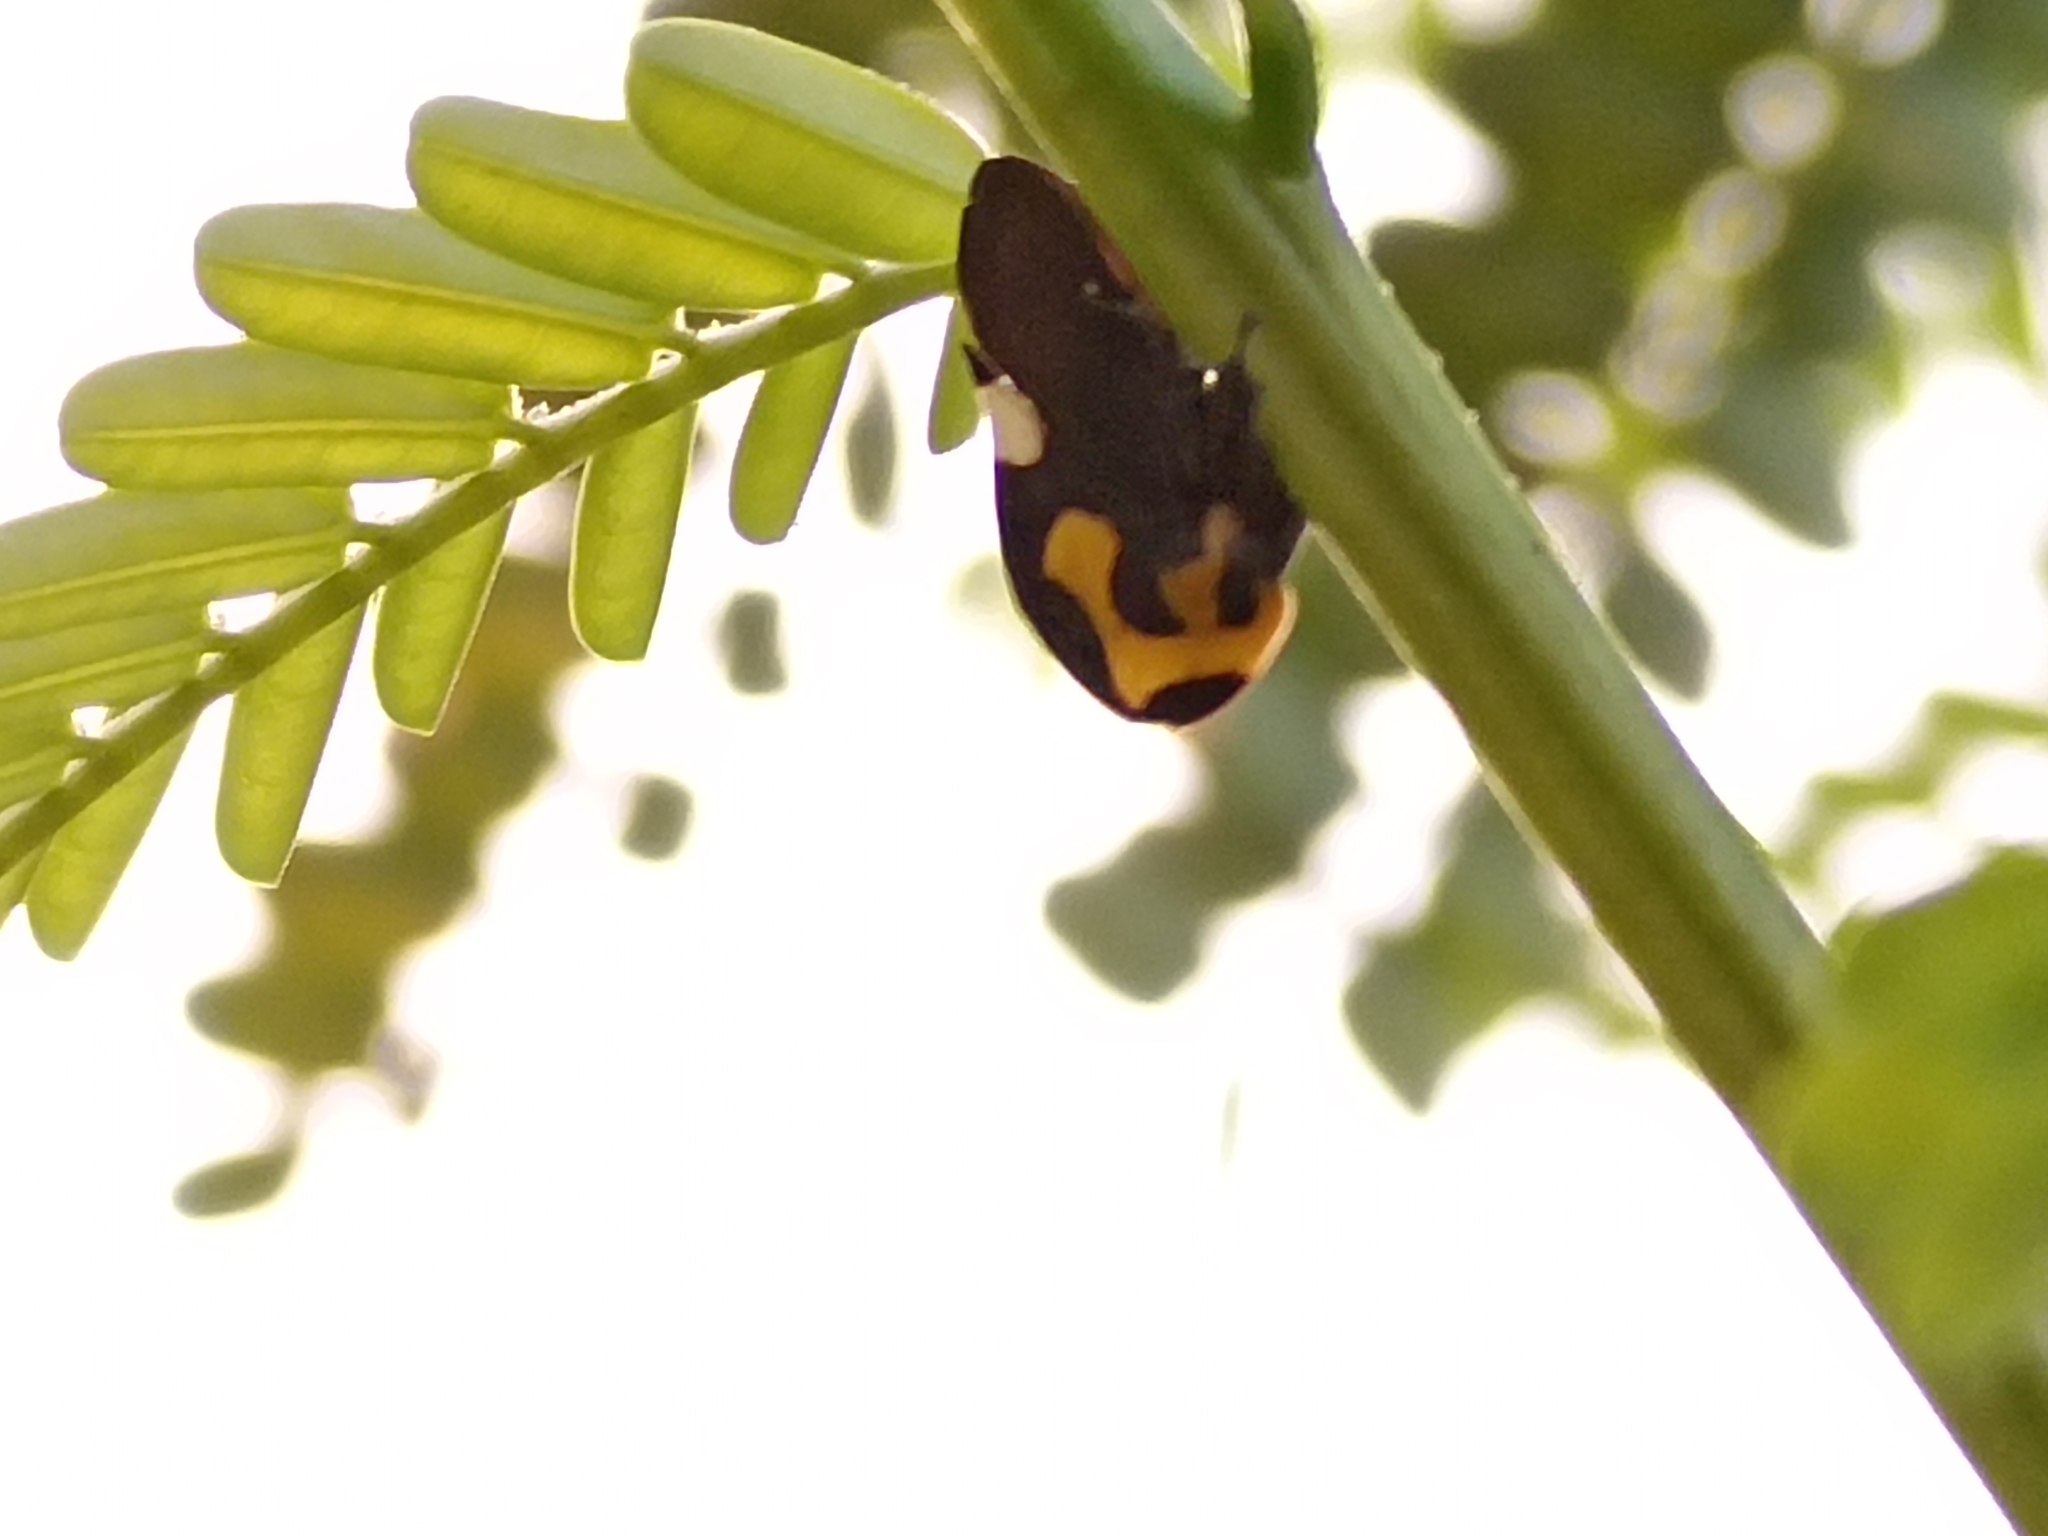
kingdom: Animalia
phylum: Arthropoda
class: Insecta
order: Hemiptera
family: Membracidae
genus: Membracis
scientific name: Membracis mexicana
